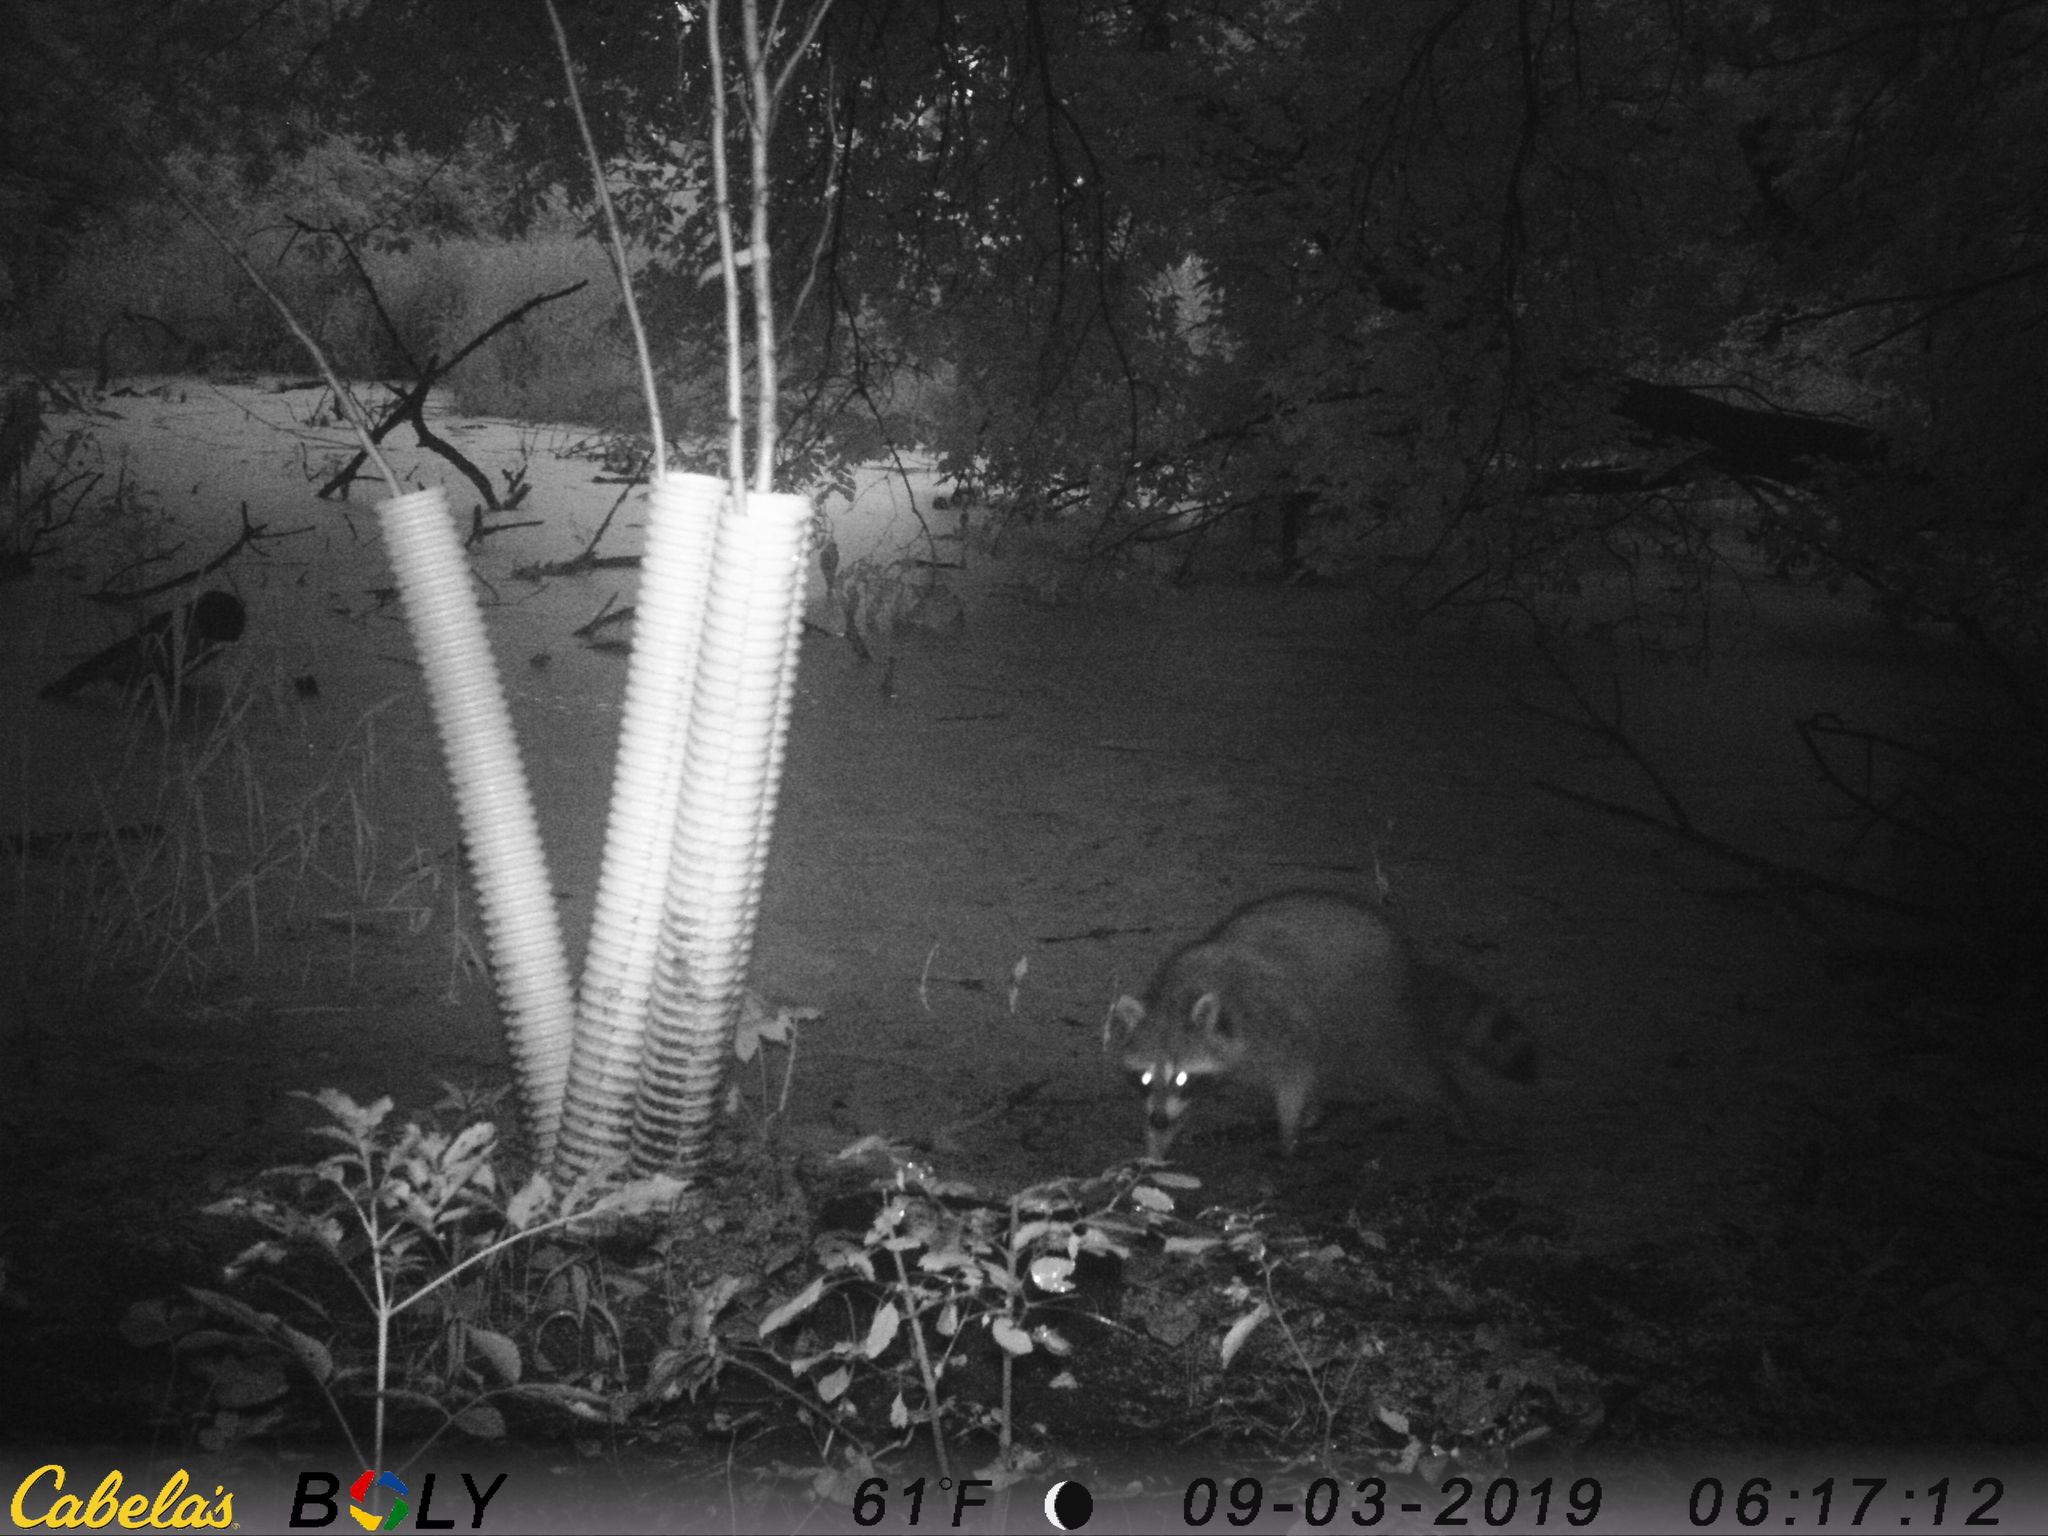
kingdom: Animalia
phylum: Chordata
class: Mammalia
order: Carnivora
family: Procyonidae
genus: Procyon
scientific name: Procyon lotor
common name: Raccoon
